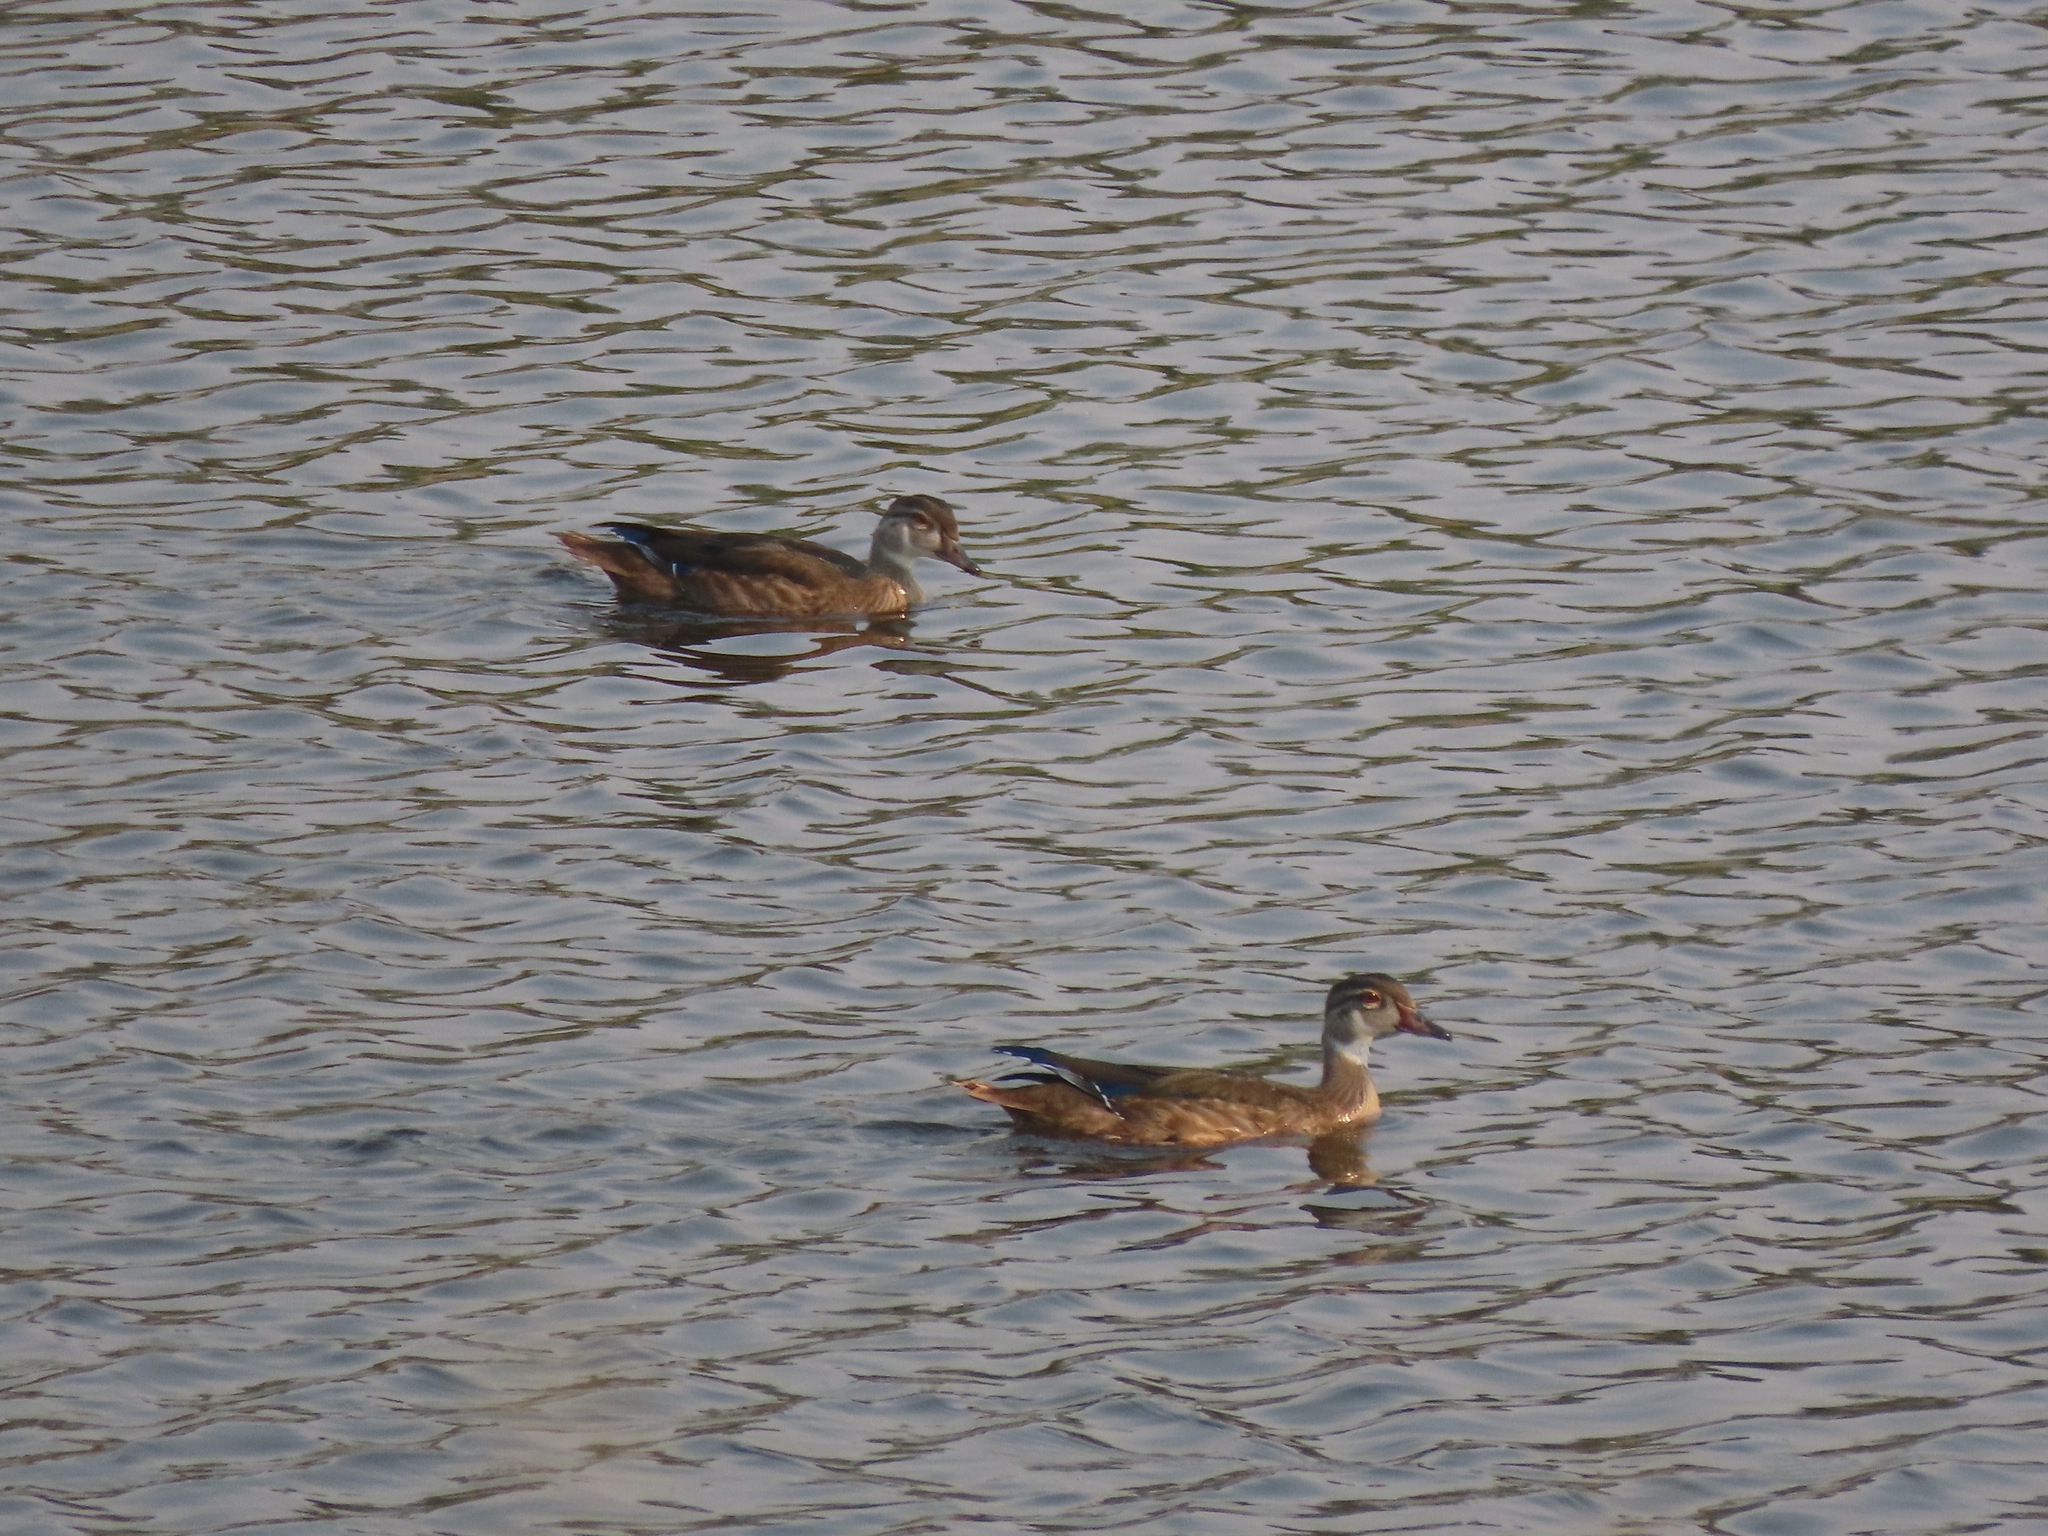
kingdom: Animalia
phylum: Chordata
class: Aves
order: Anseriformes
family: Anatidae
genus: Aix
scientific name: Aix sponsa
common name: Wood duck
